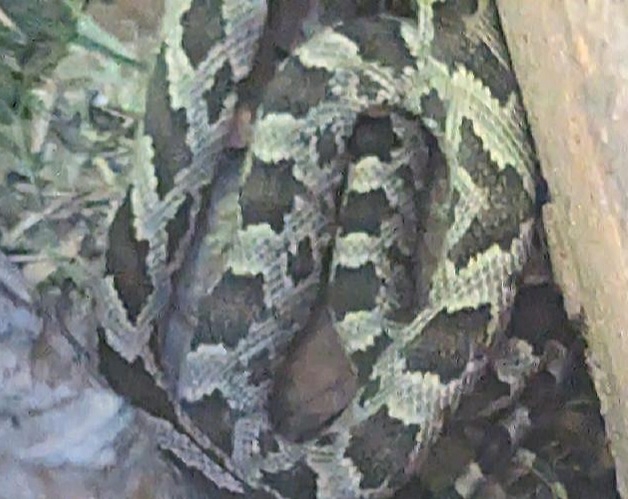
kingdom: Animalia
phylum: Chordata
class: Squamata
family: Colubridae
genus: Pantherophis
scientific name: Pantherophis obsoletus
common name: Black rat snake
